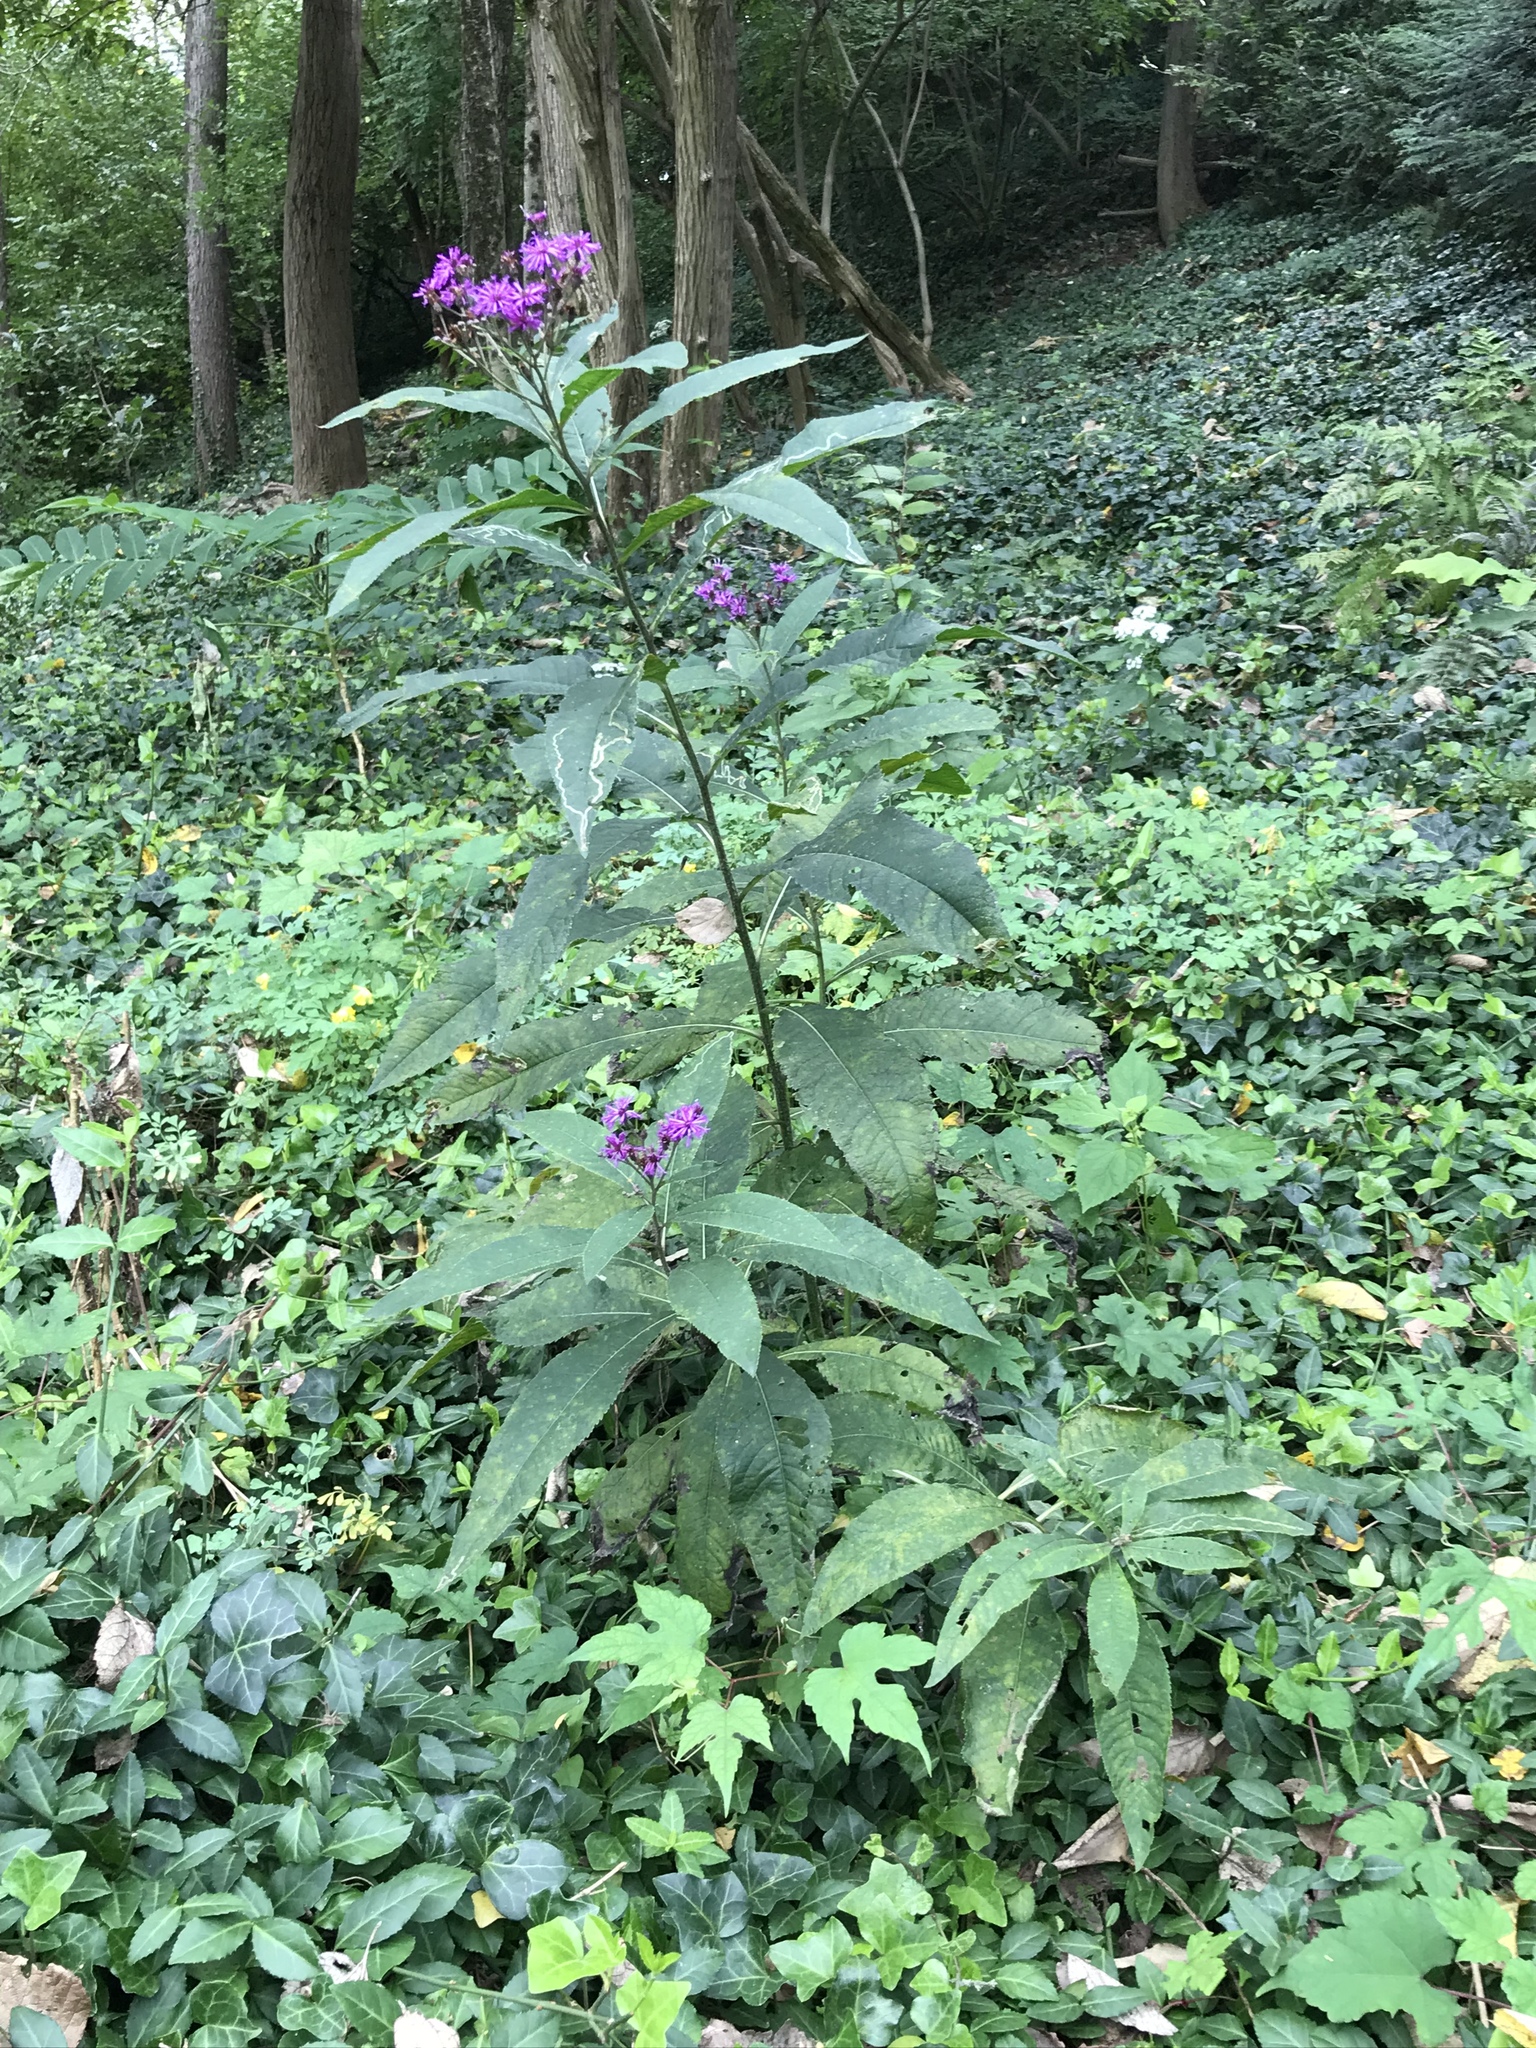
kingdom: Plantae
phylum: Tracheophyta
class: Magnoliopsida
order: Asterales
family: Asteraceae
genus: Vernonia
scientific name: Vernonia gigantea
